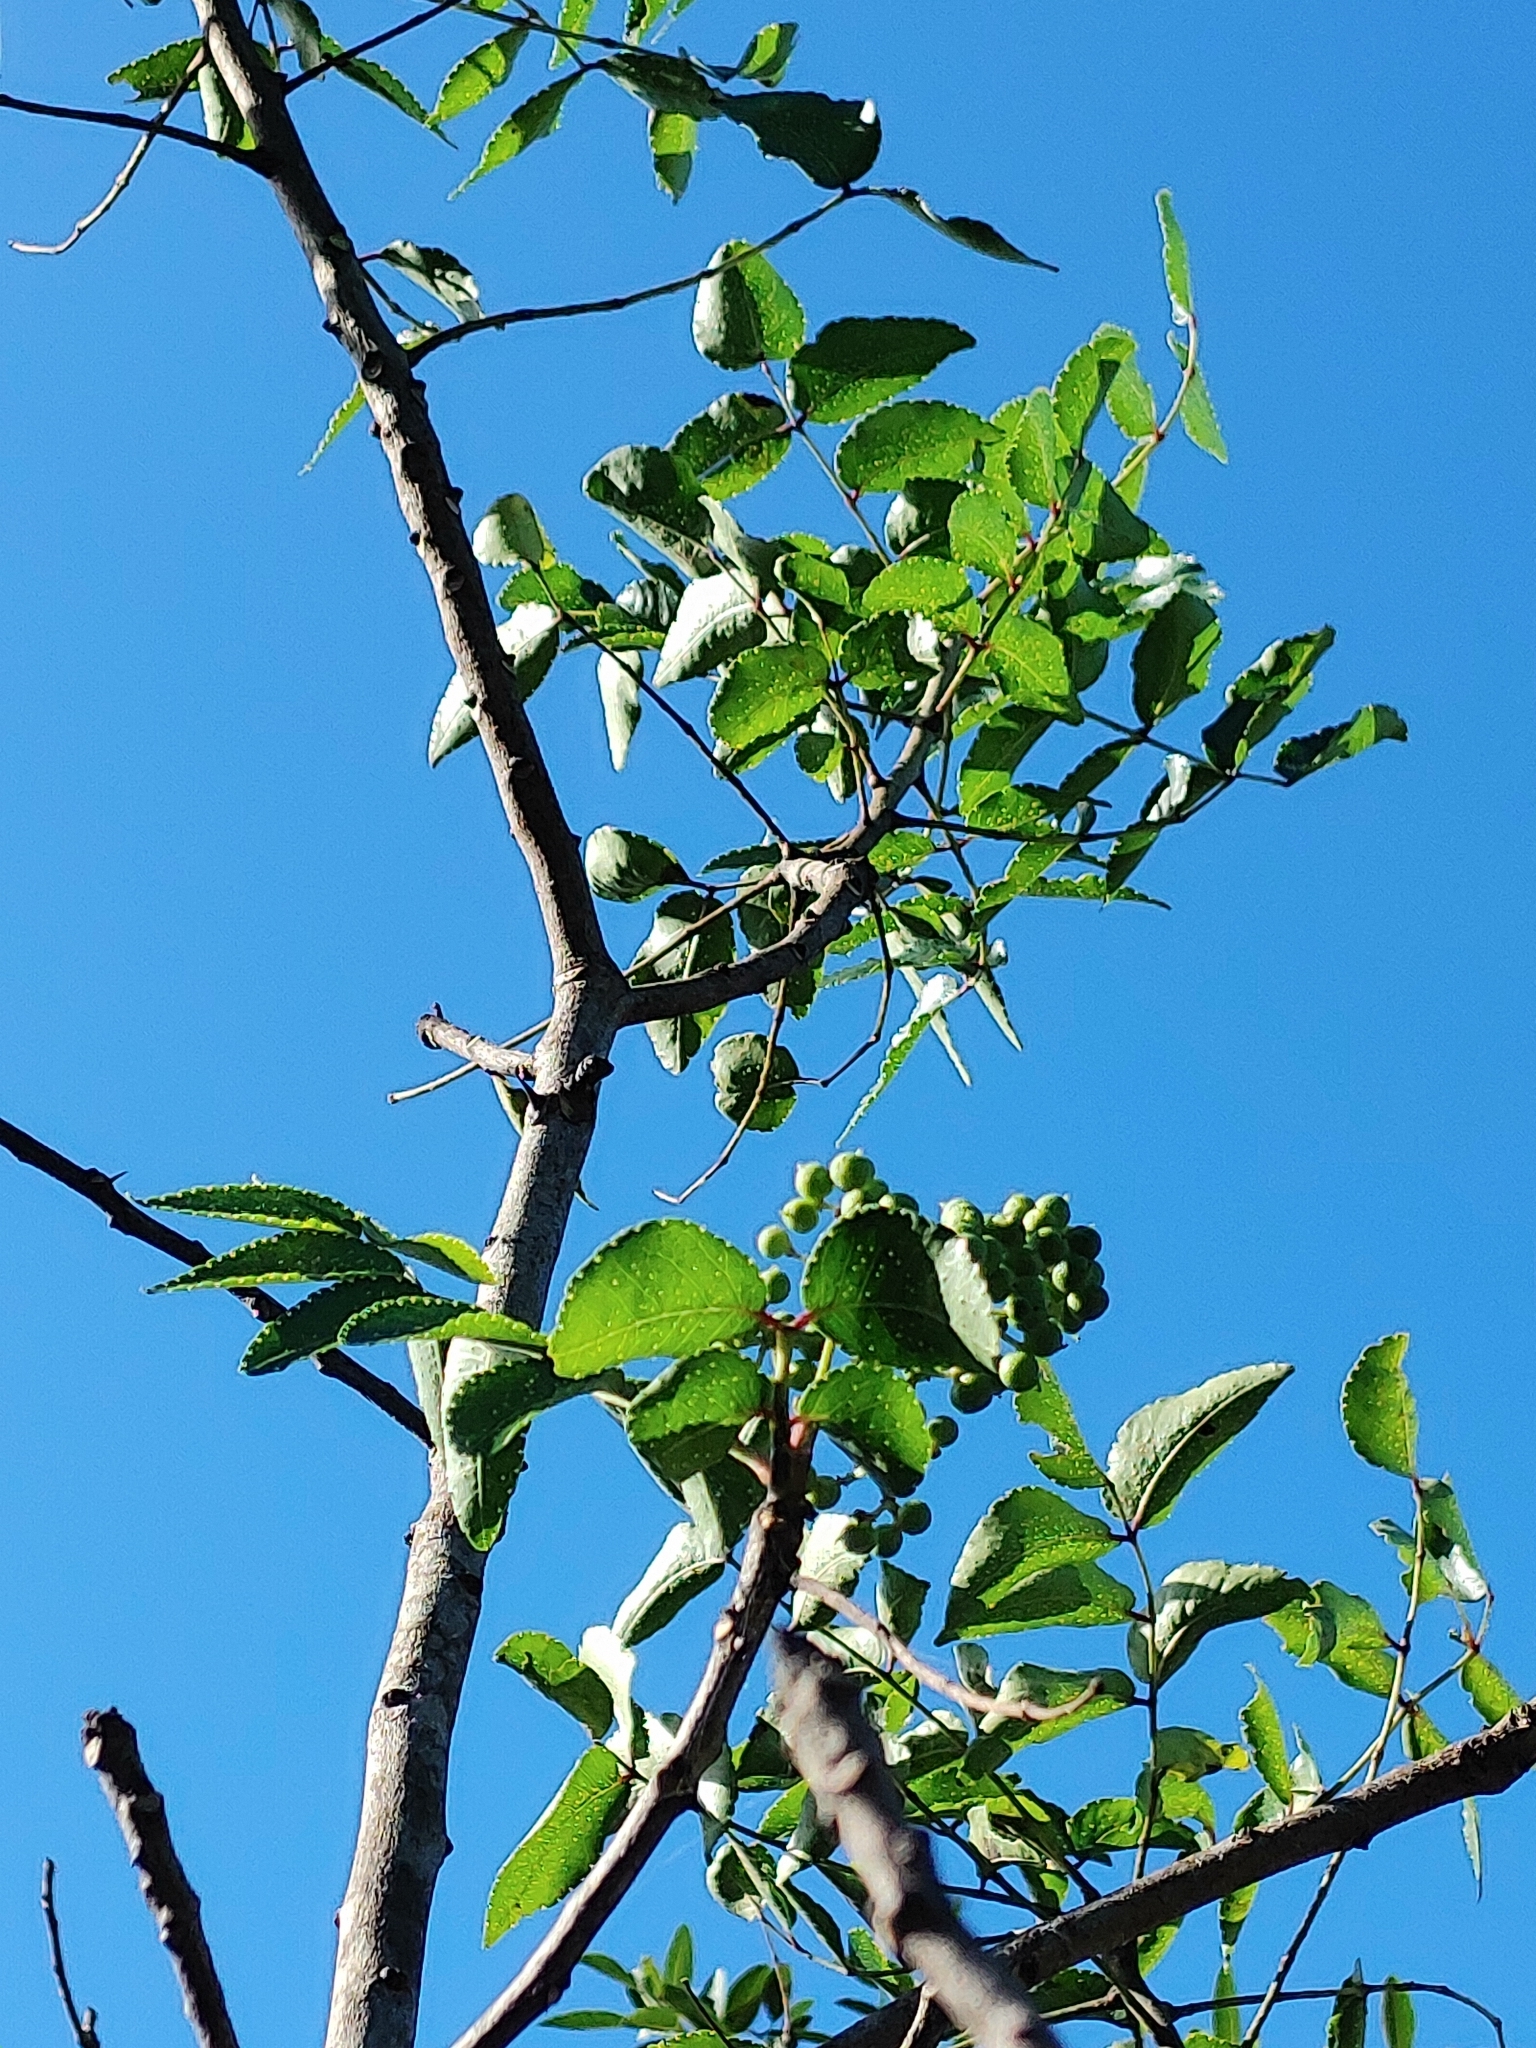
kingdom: Plantae
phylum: Tracheophyta
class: Magnoliopsida
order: Sapindales
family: Rutaceae
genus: Zanthoxylum
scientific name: Zanthoxylum clava-herculis
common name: Hercules'-club
